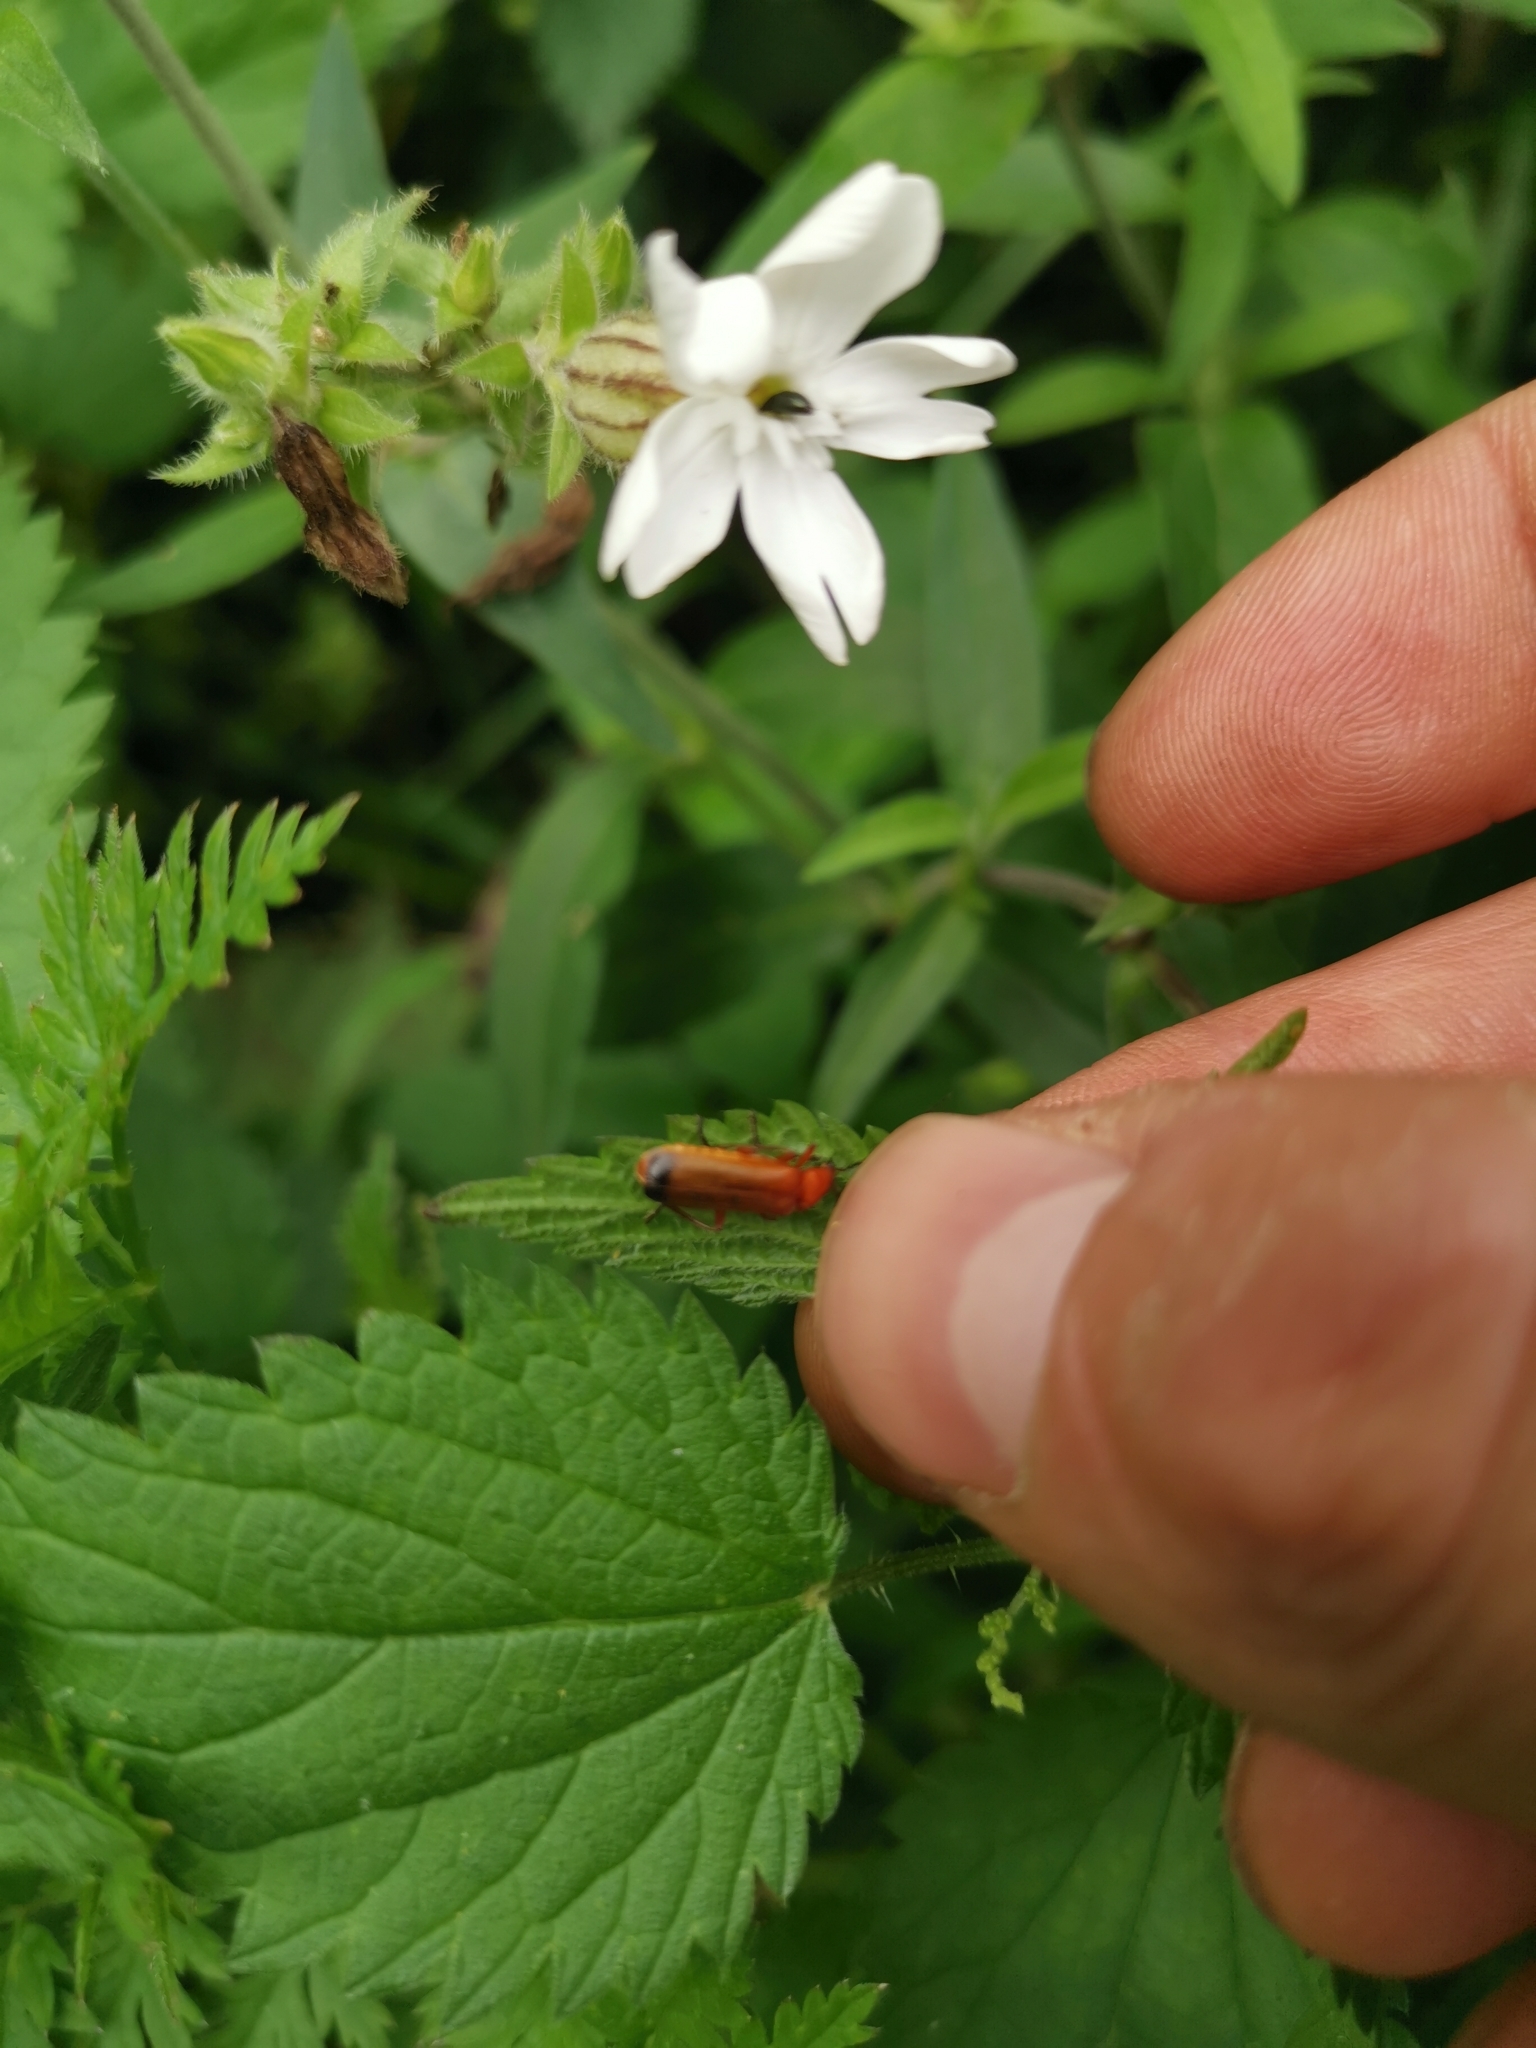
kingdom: Animalia
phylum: Arthropoda
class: Insecta
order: Coleoptera
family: Cantharidae
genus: Rhagonycha
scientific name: Rhagonycha fulva
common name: Common red soldier beetle
